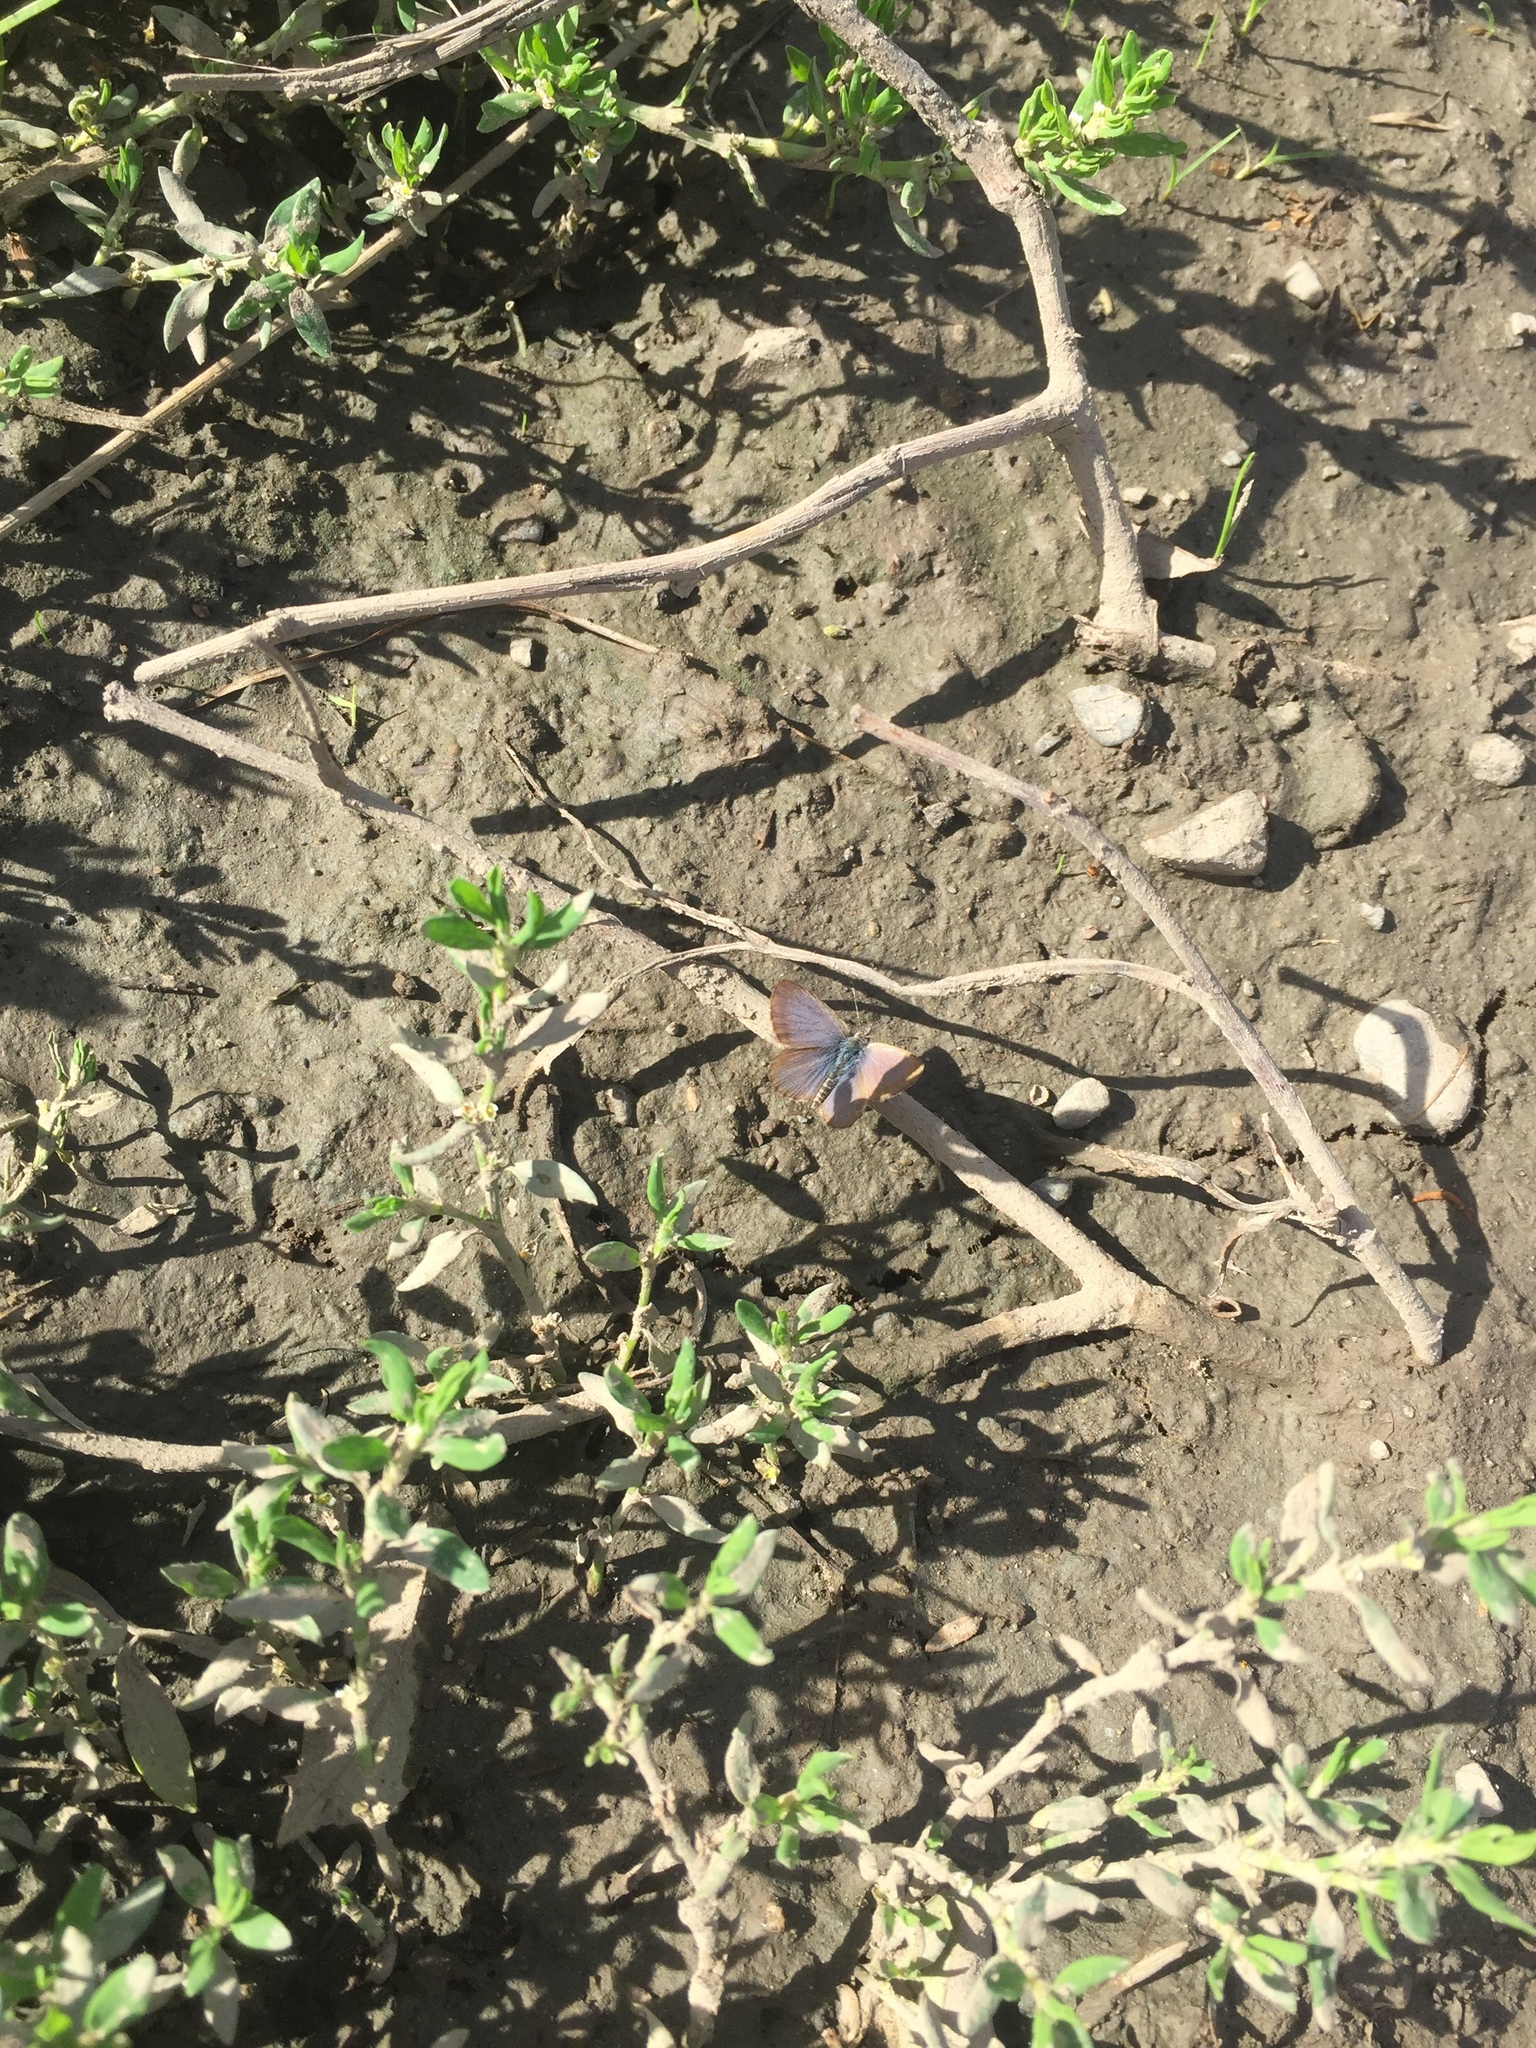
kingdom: Animalia
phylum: Arthropoda
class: Insecta
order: Lepidoptera
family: Lycaenidae
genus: Zizina
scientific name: Zizina oxleyi
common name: Southern blue
